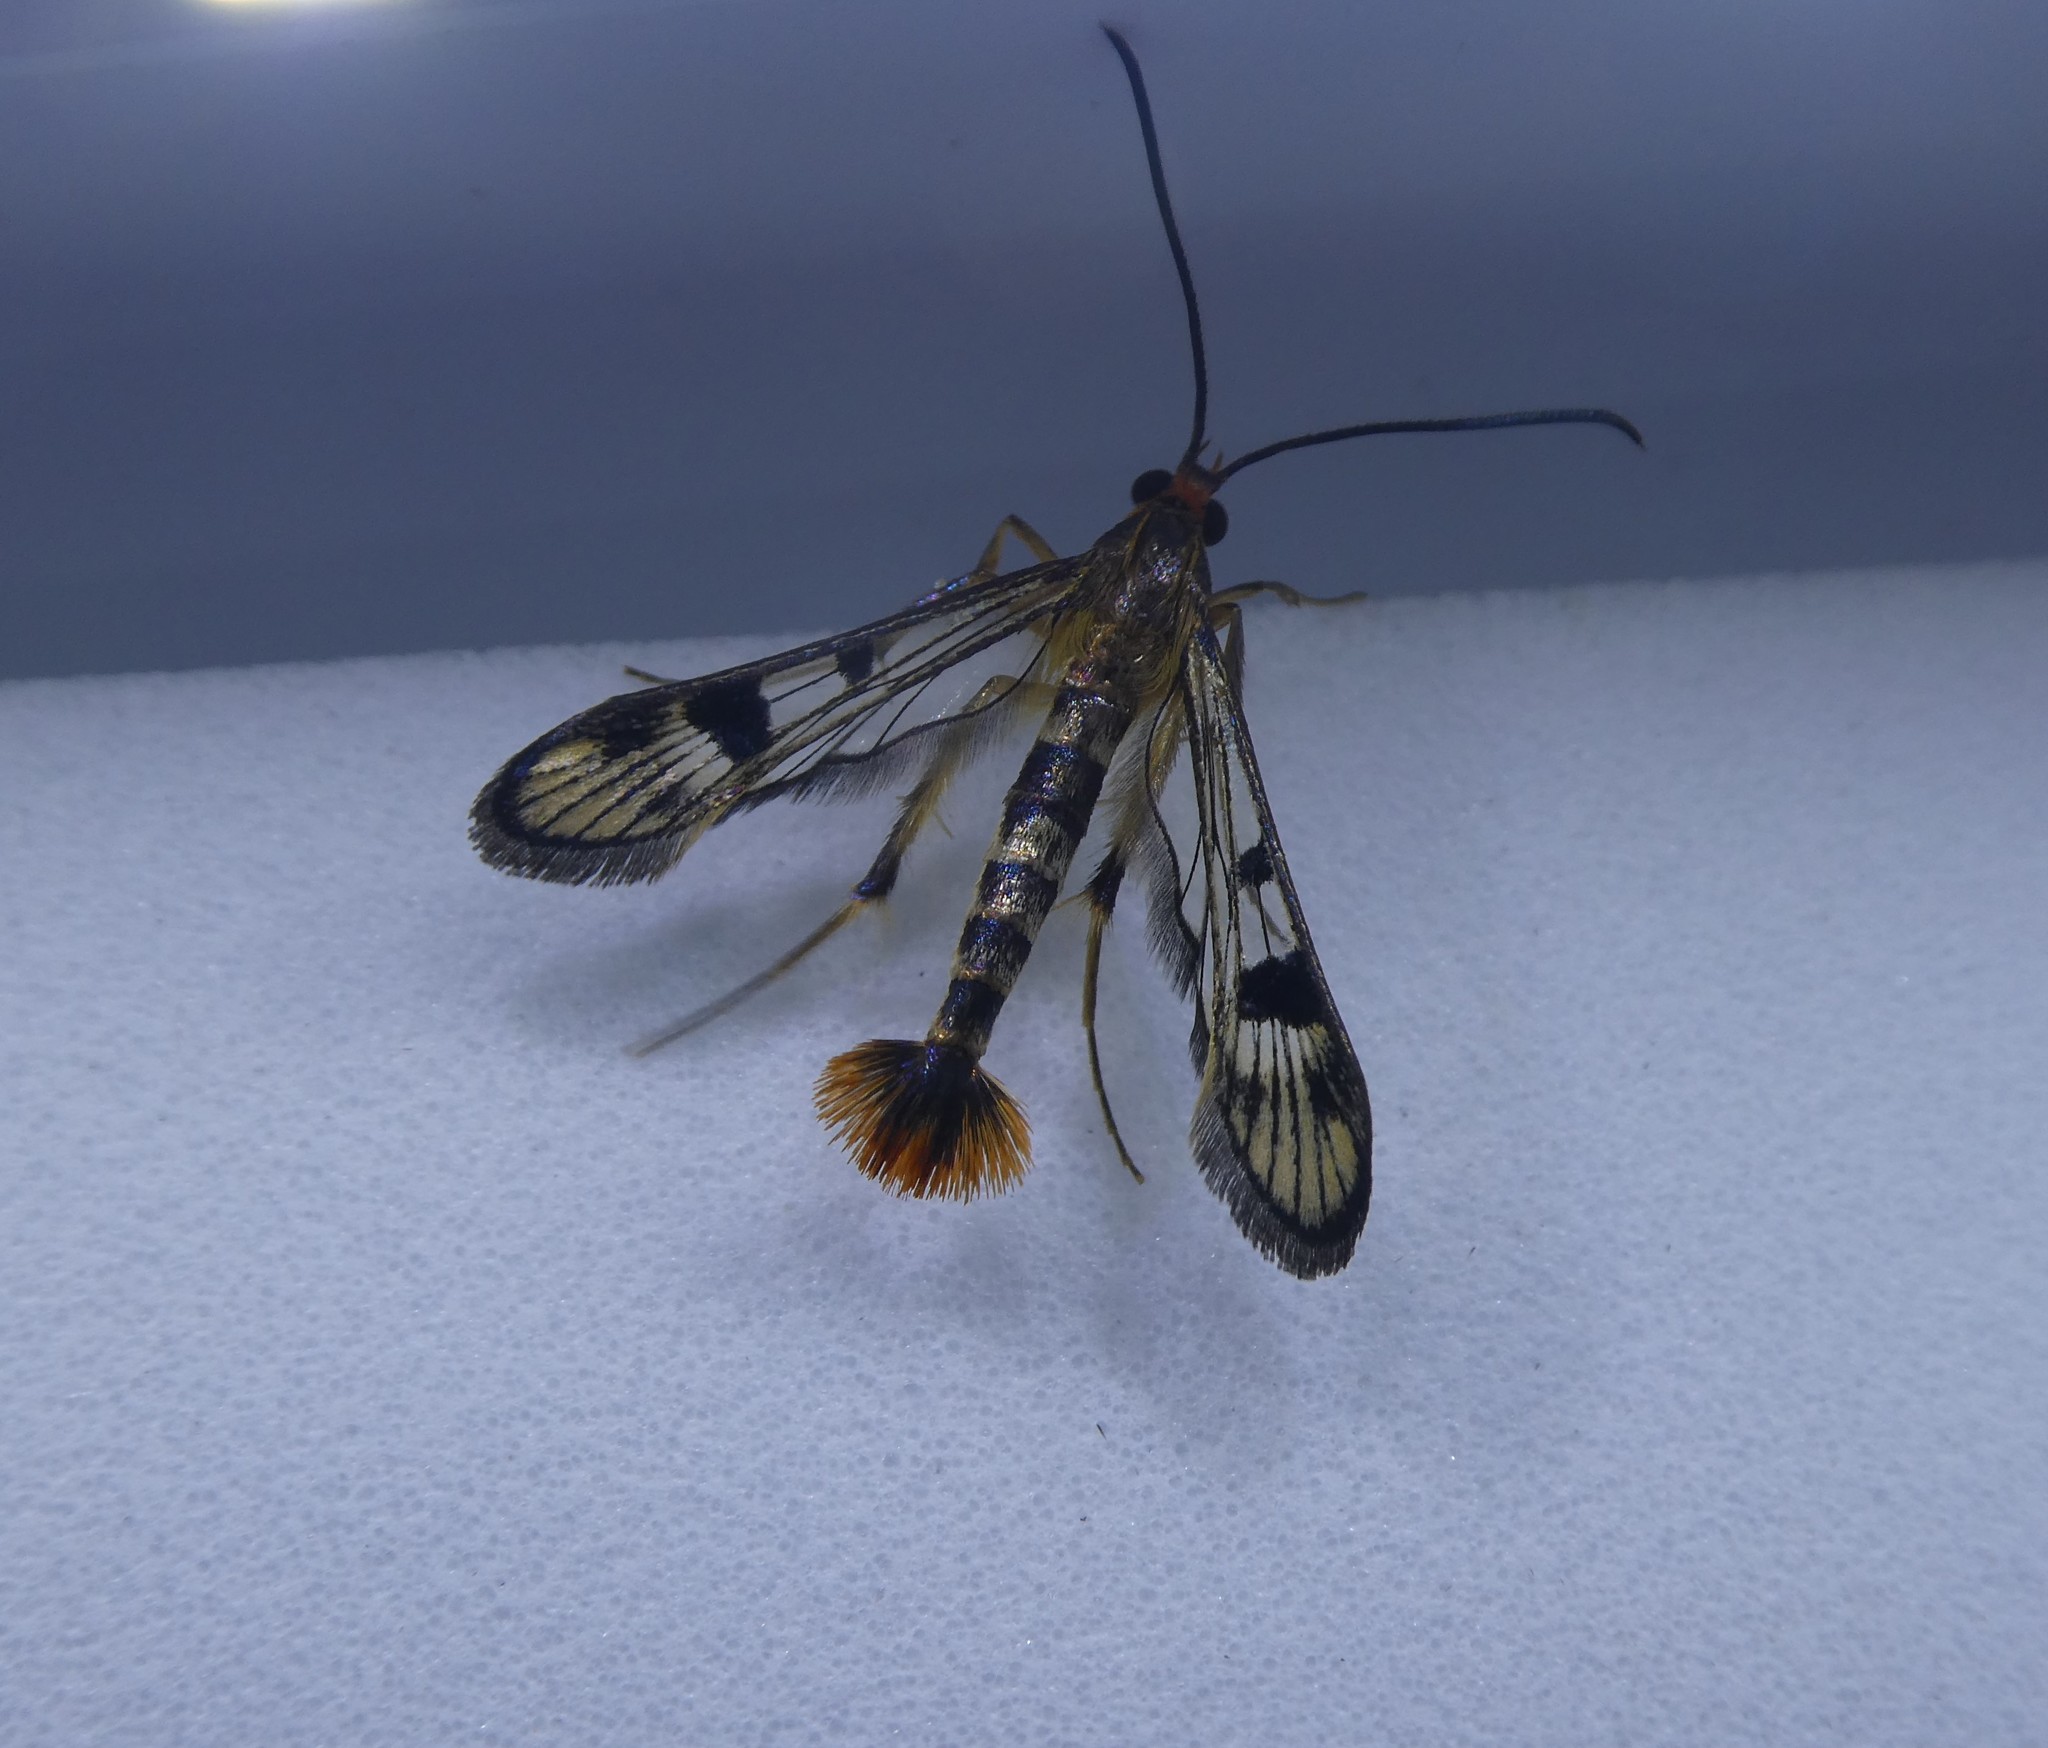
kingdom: Animalia
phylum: Arthropoda
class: Insecta
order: Lepidoptera
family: Sesiidae
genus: Synanthedon
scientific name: Synanthedon acerni
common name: Maple callus borer moth
